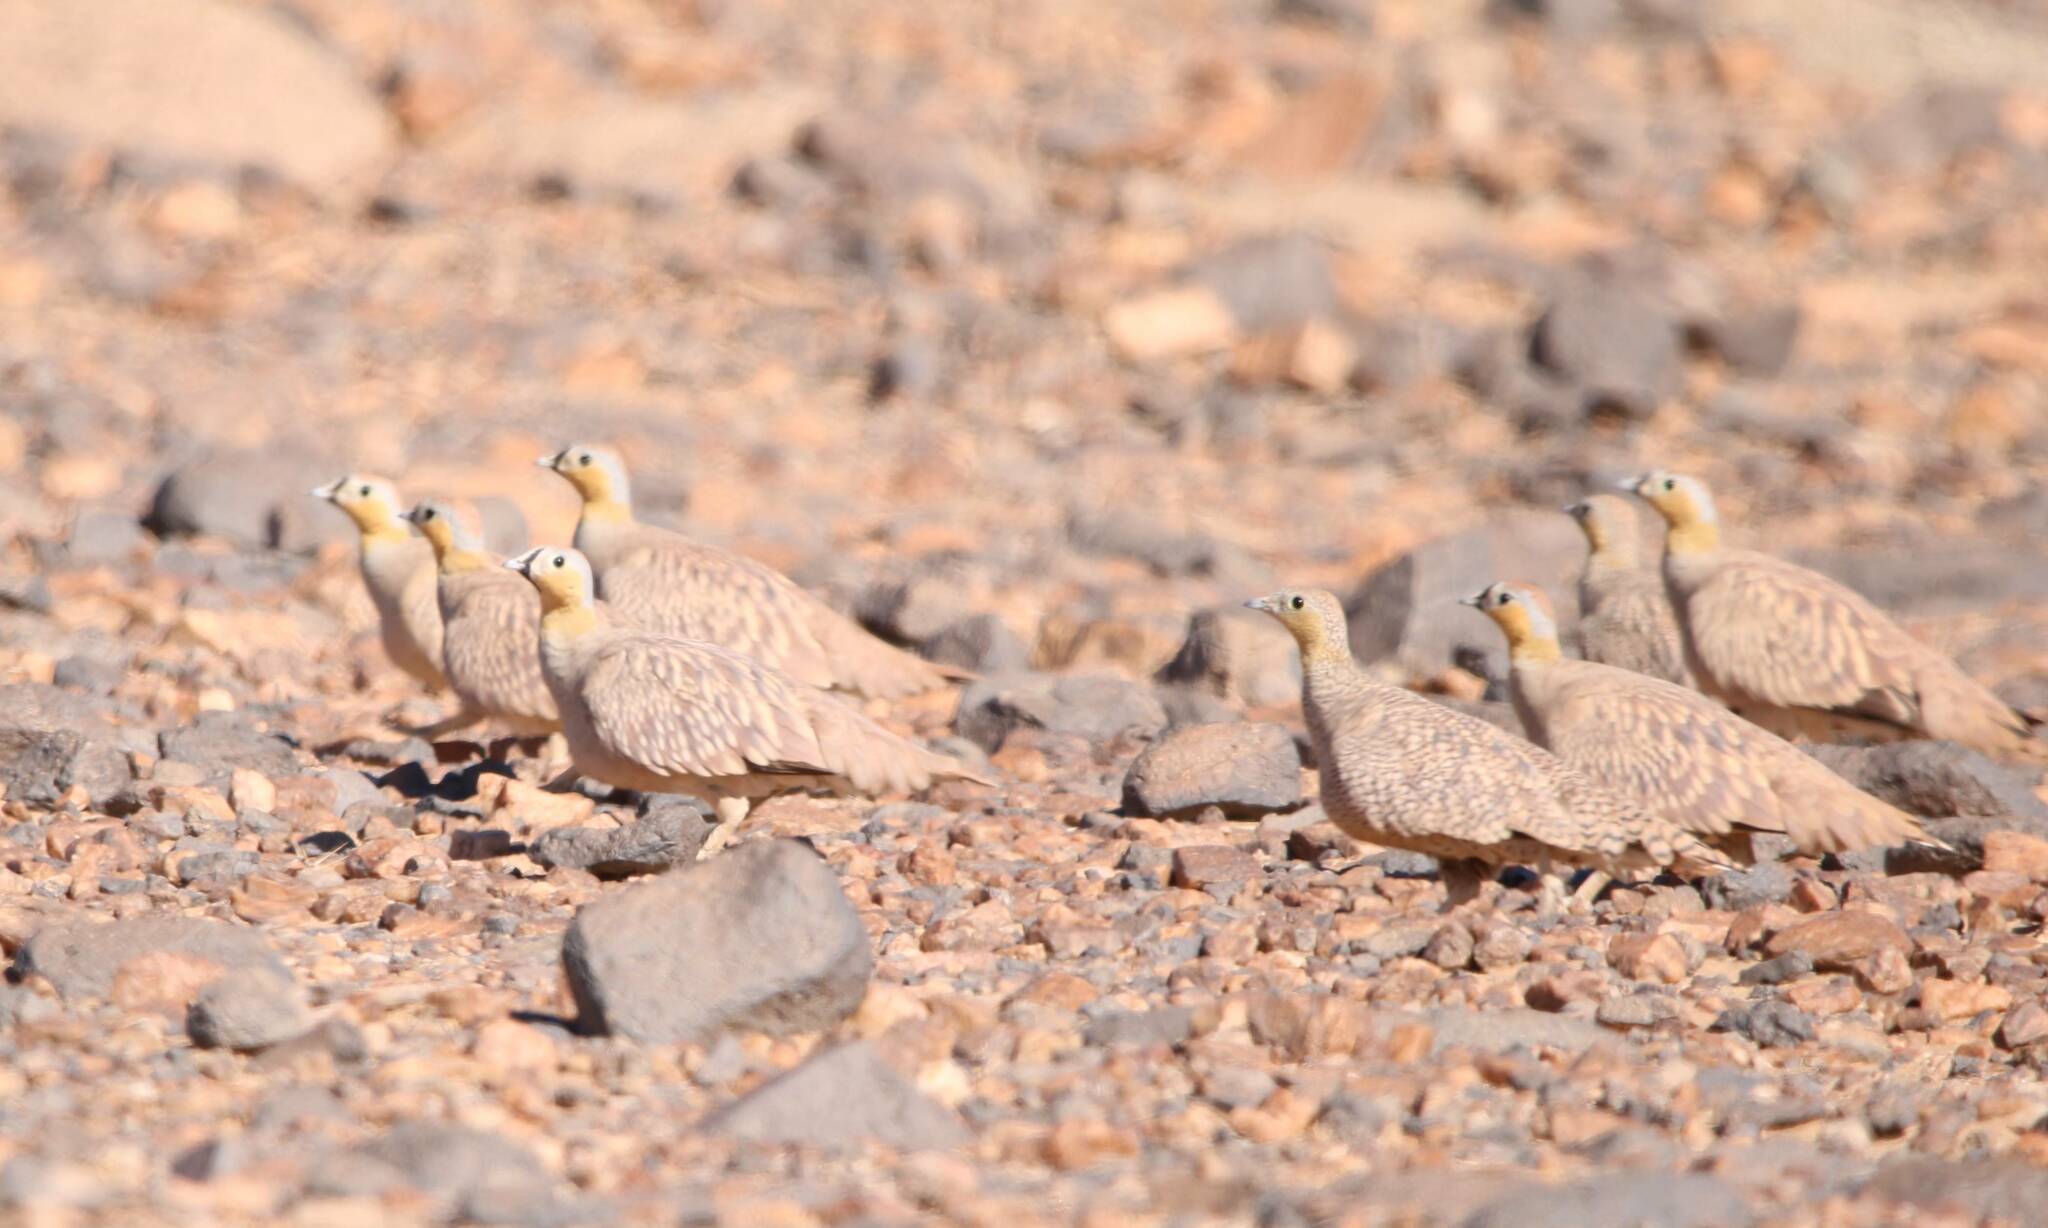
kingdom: Animalia
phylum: Chordata
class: Aves
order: Pteroclidiformes
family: Pteroclididae
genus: Pterocles
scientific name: Pterocles coronatus
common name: Crowned sandgrouse
